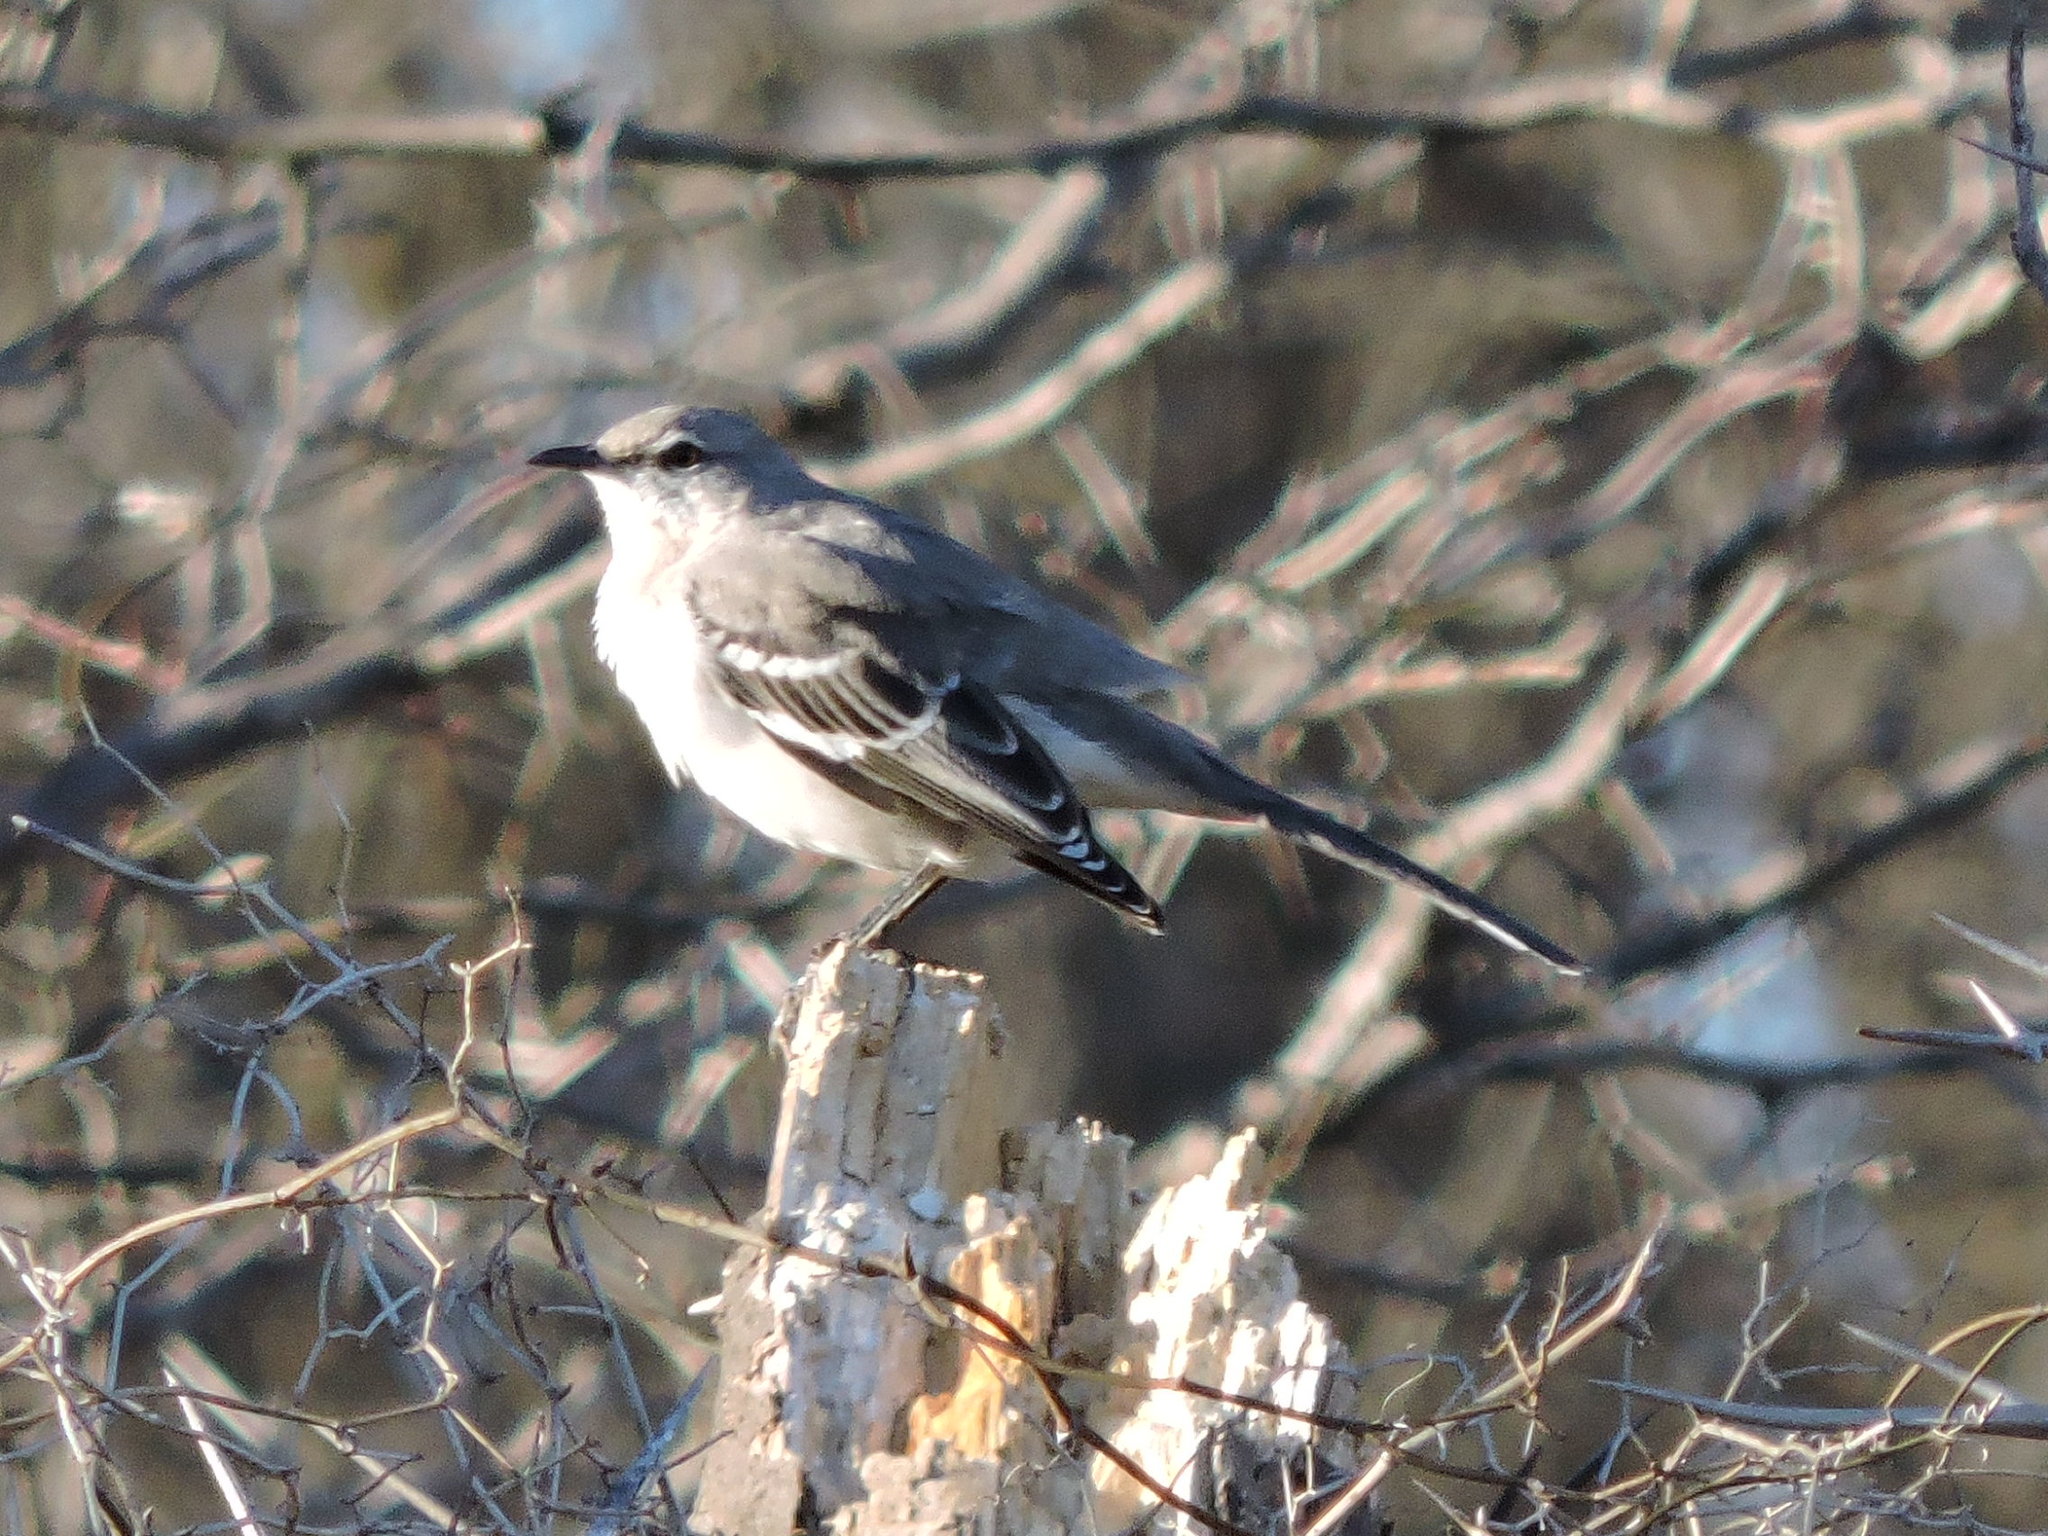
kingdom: Animalia
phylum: Chordata
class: Aves
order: Passeriformes
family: Mimidae
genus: Mimus
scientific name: Mimus polyglottos
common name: Northern mockingbird
